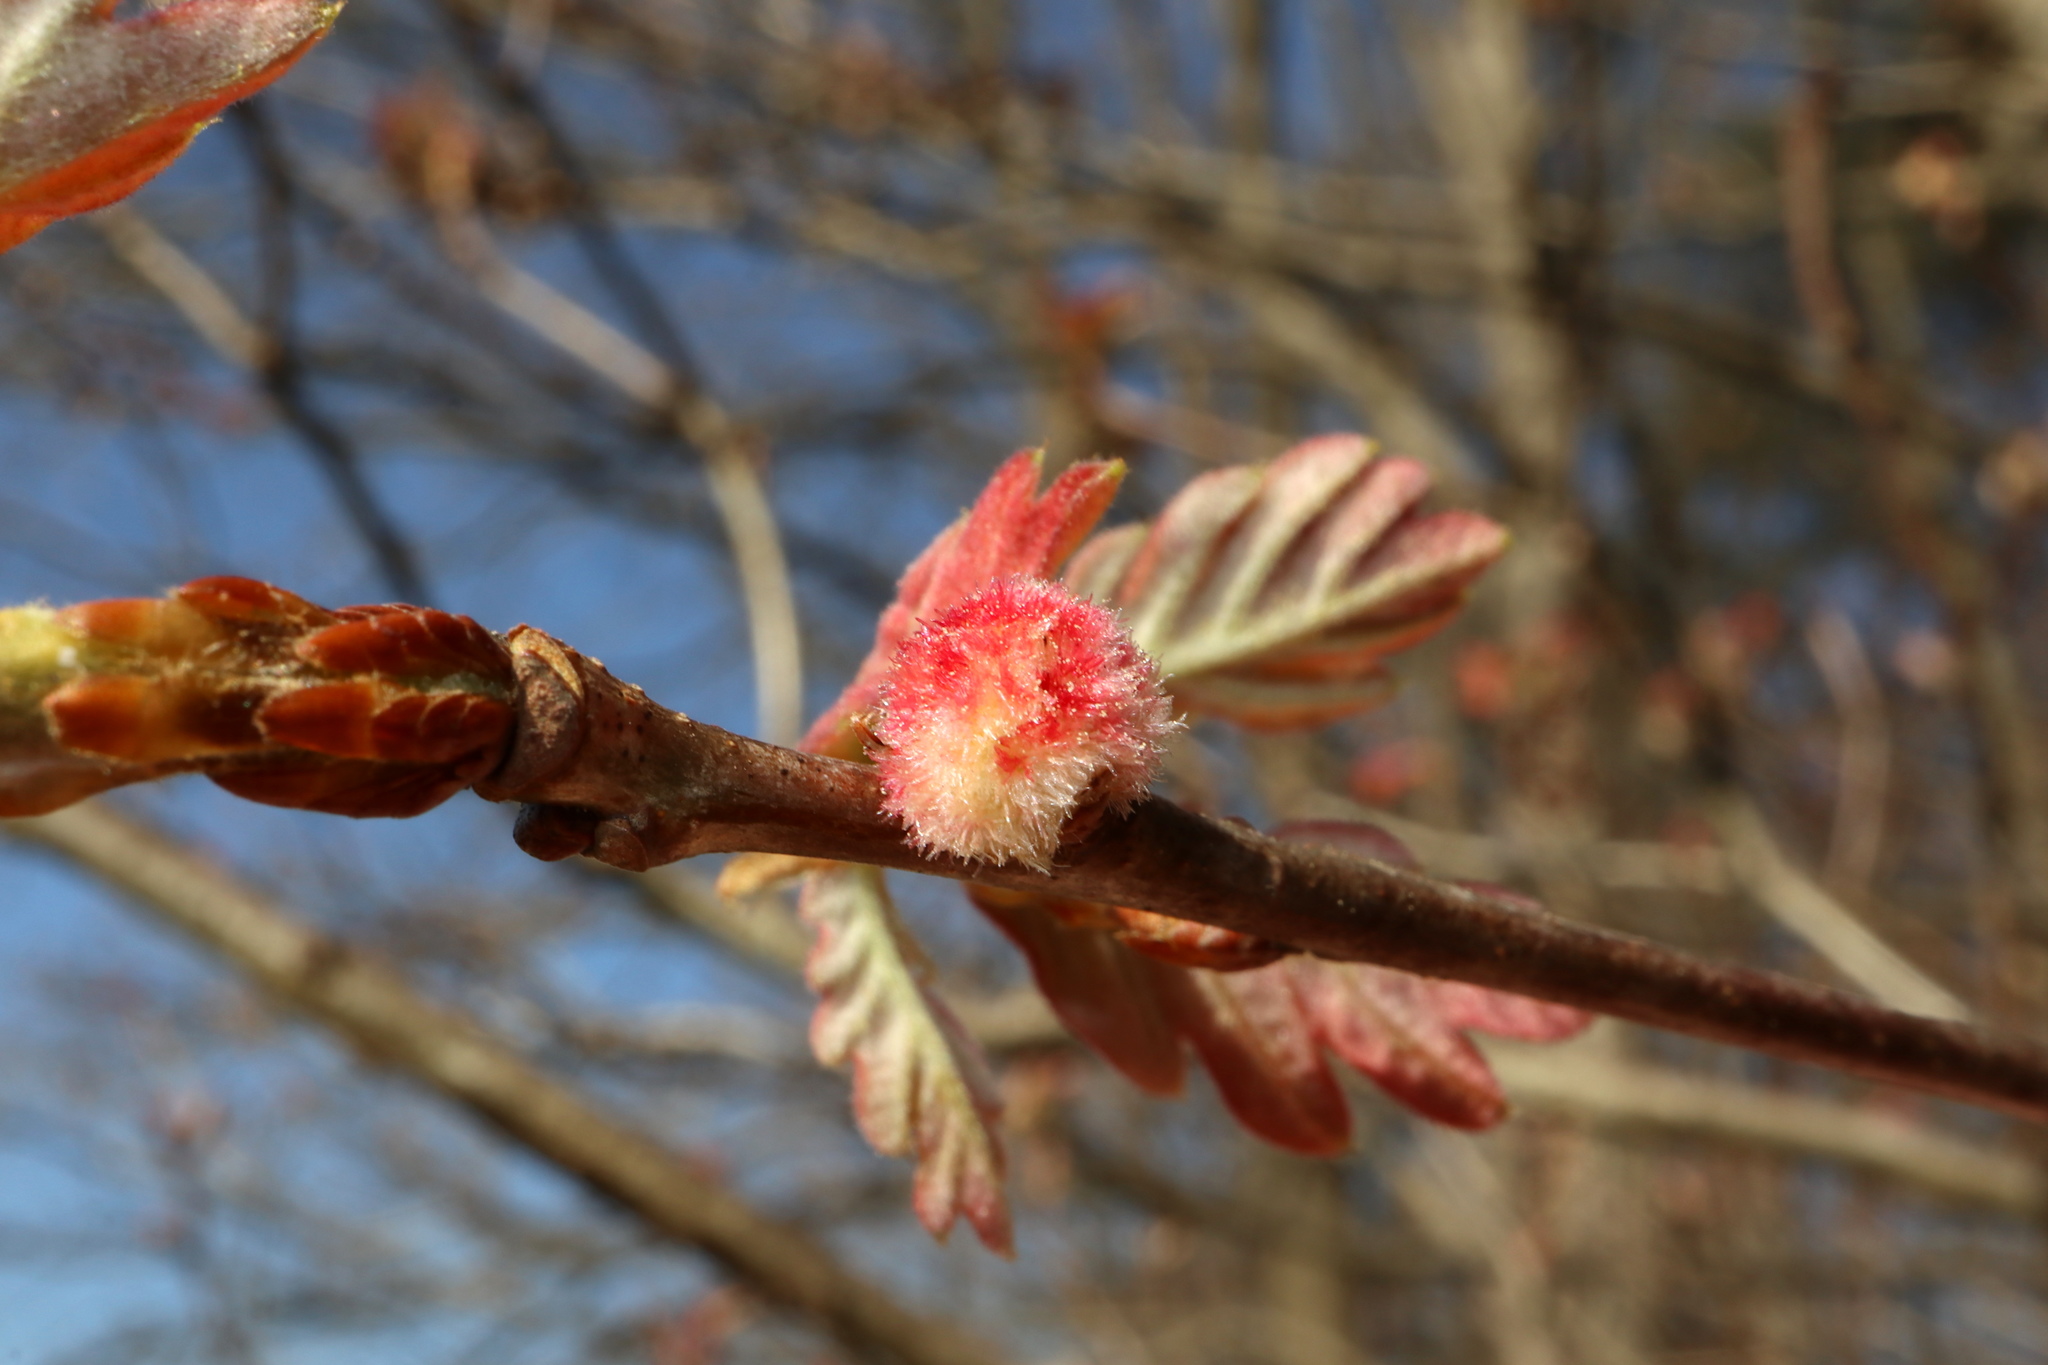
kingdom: Animalia
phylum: Arthropoda
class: Insecta
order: Hymenoptera
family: Cynipidae
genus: Callirhytis
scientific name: Callirhytis
